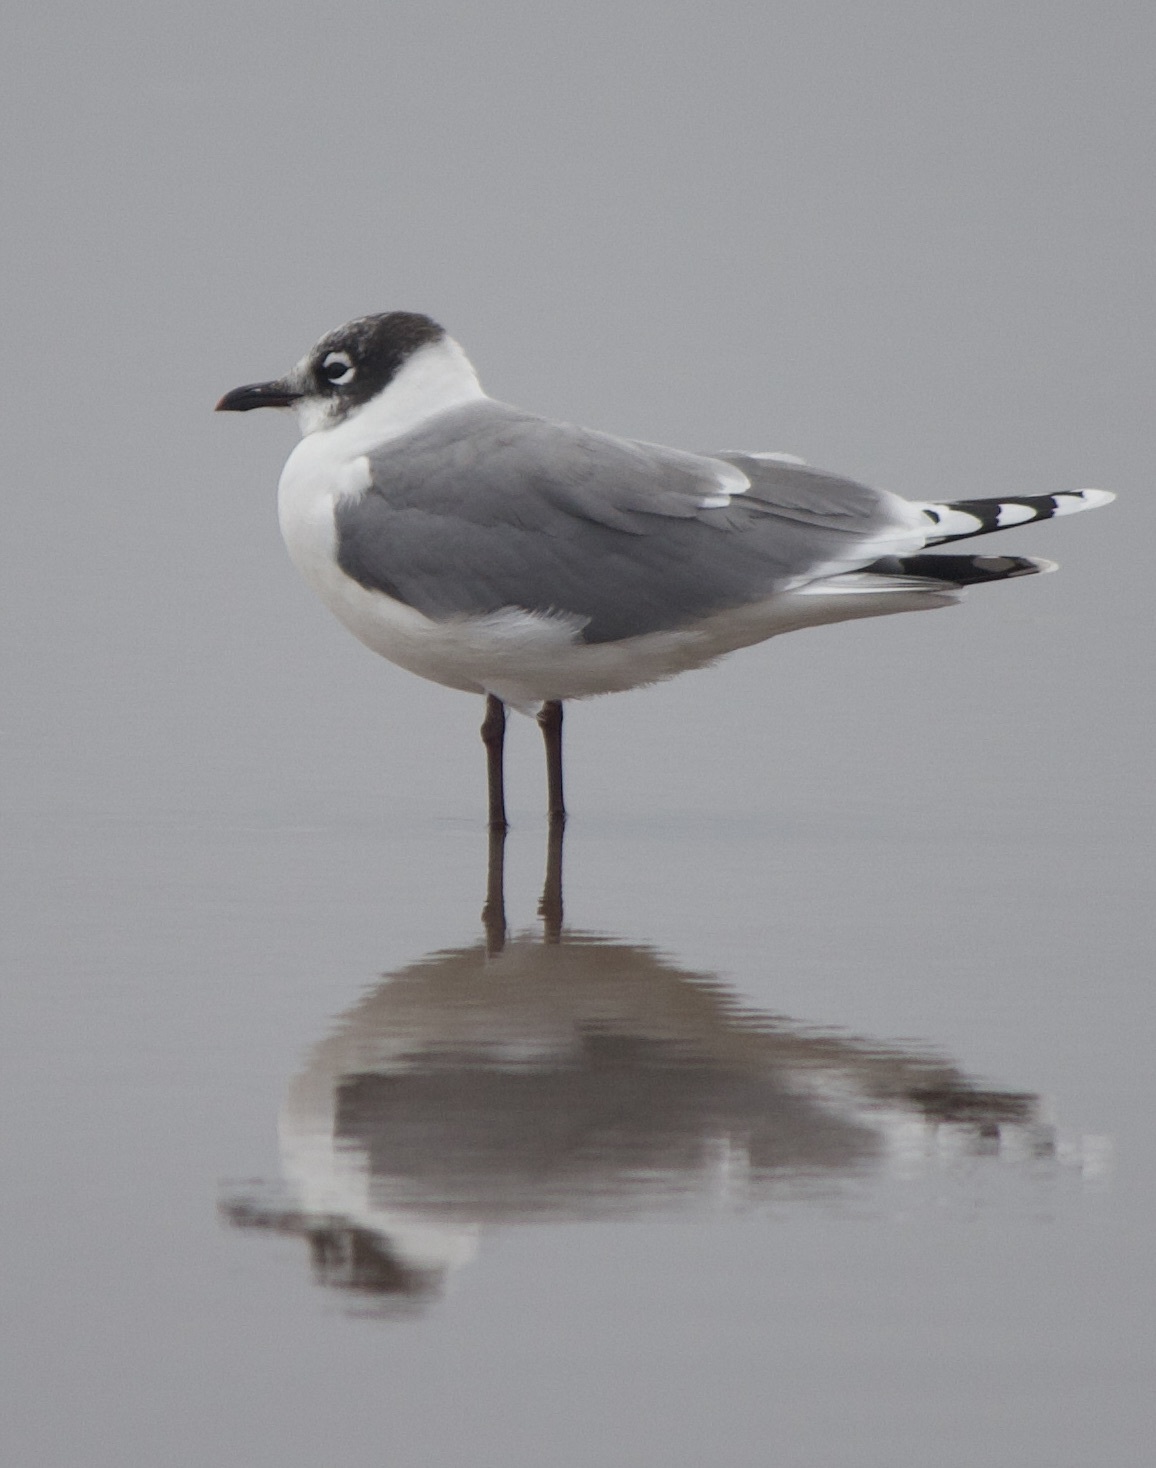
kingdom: Animalia
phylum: Chordata
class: Aves
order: Charadriiformes
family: Laridae
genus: Leucophaeus
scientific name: Leucophaeus pipixcan
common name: Franklin's gull
